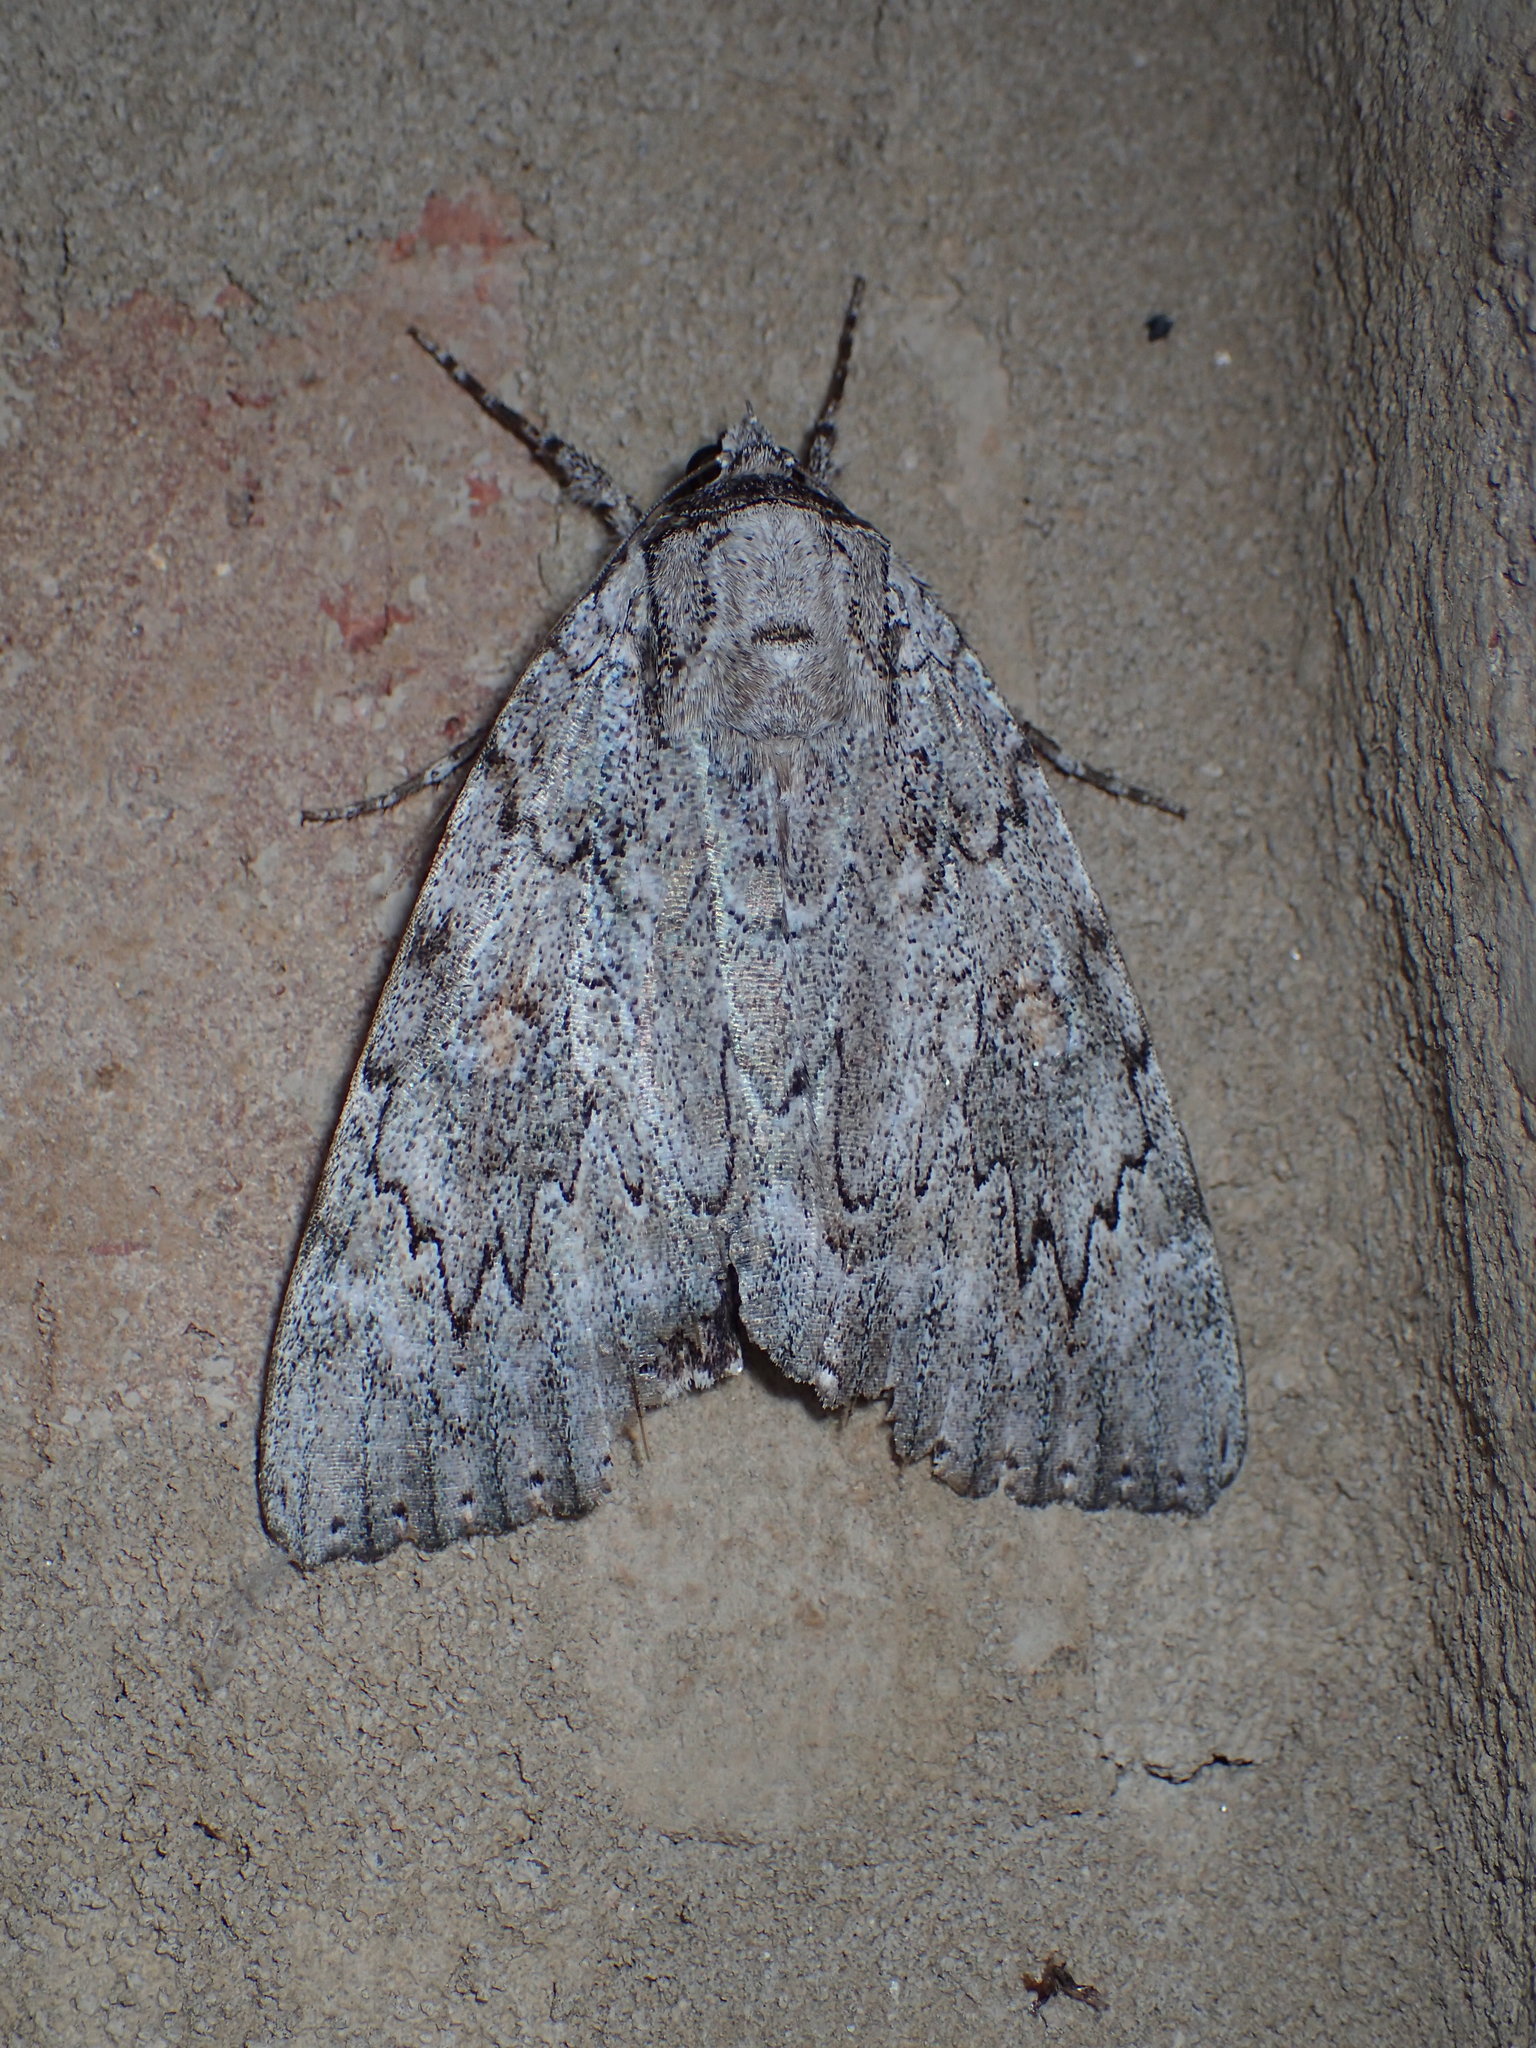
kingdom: Animalia
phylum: Arthropoda
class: Insecta
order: Lepidoptera
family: Erebidae
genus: Catocala
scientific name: Catocala robinsoni
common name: Robinson's underwing
